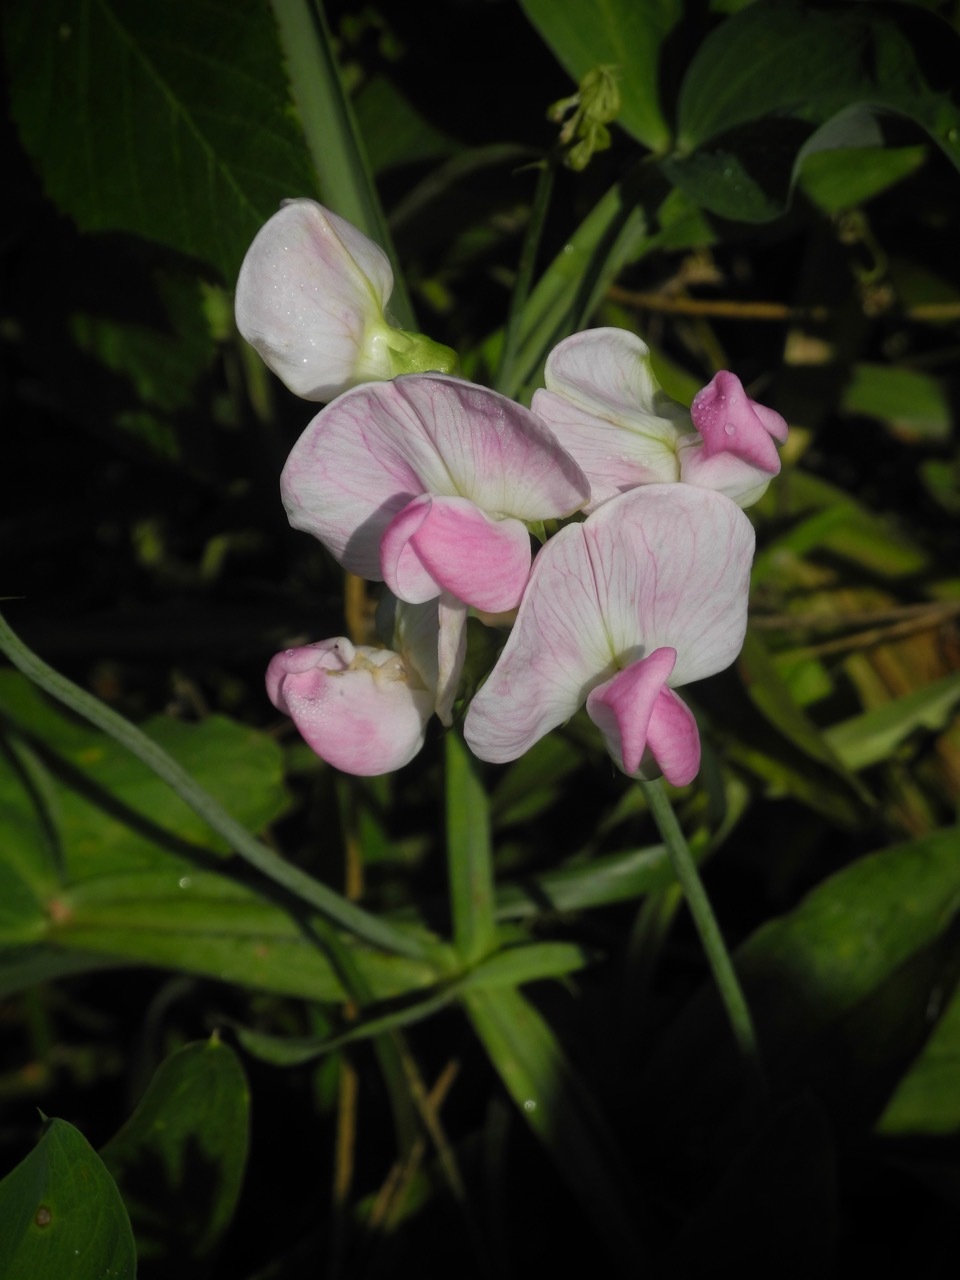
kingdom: Plantae
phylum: Tracheophyta
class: Magnoliopsida
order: Fabales
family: Fabaceae
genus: Lathyrus
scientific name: Lathyrus latifolius
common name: Perennial pea
